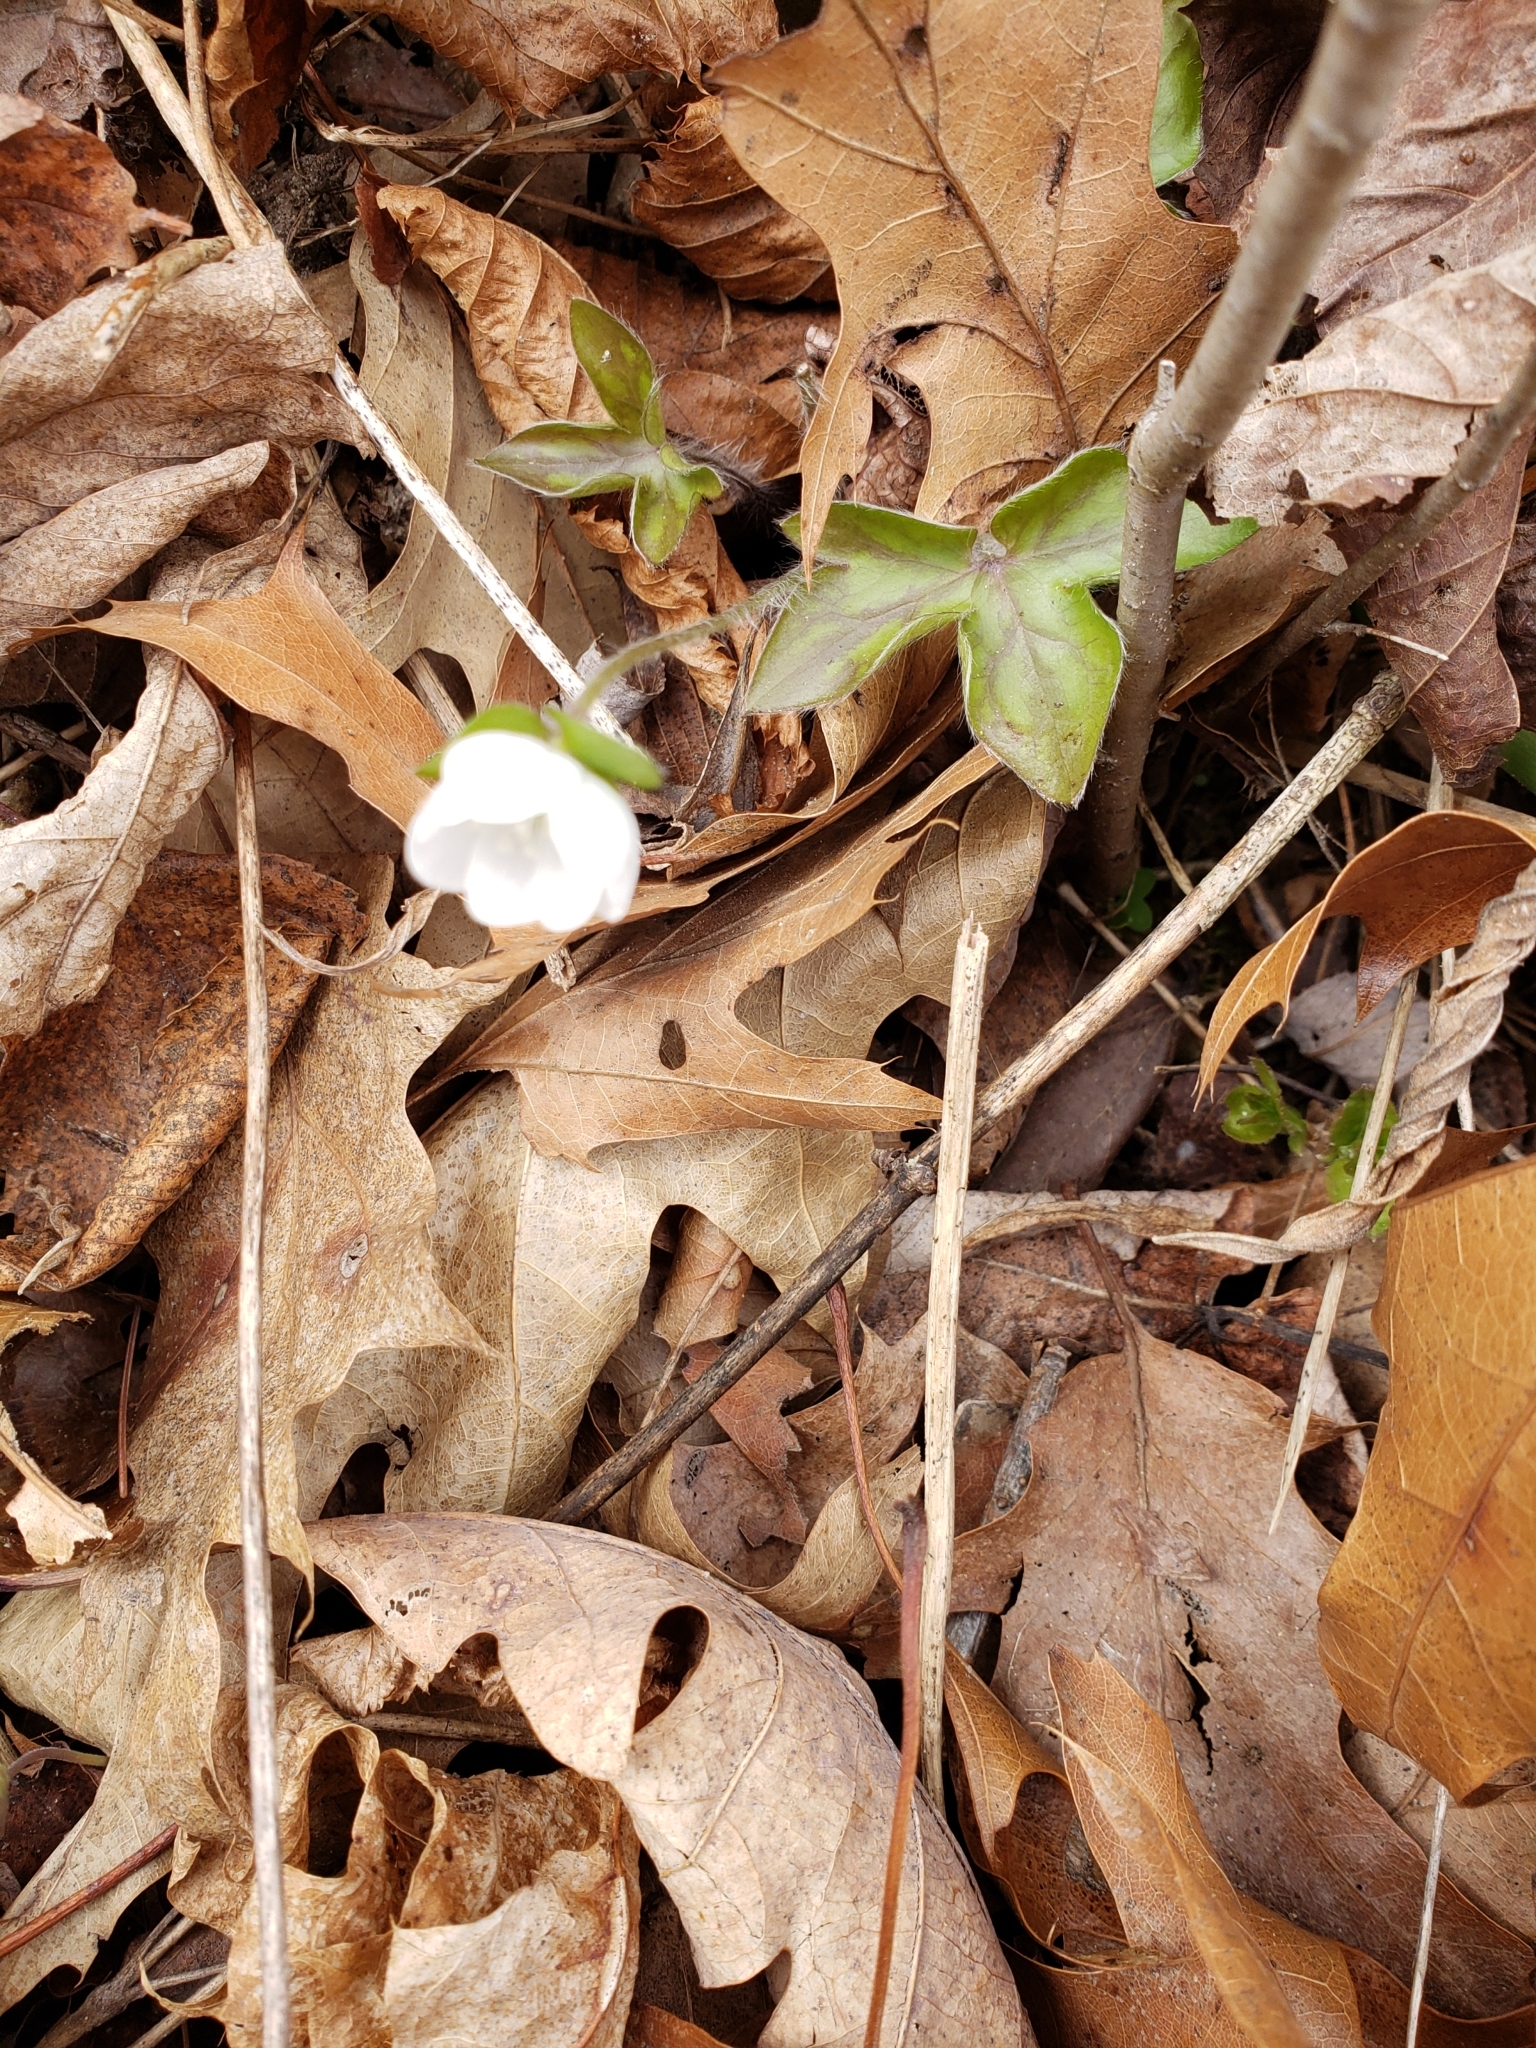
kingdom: Plantae
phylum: Tracheophyta
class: Magnoliopsida
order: Ranunculales
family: Ranunculaceae
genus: Hepatica
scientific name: Hepatica acutiloba
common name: Sharp-lobed hepatica
